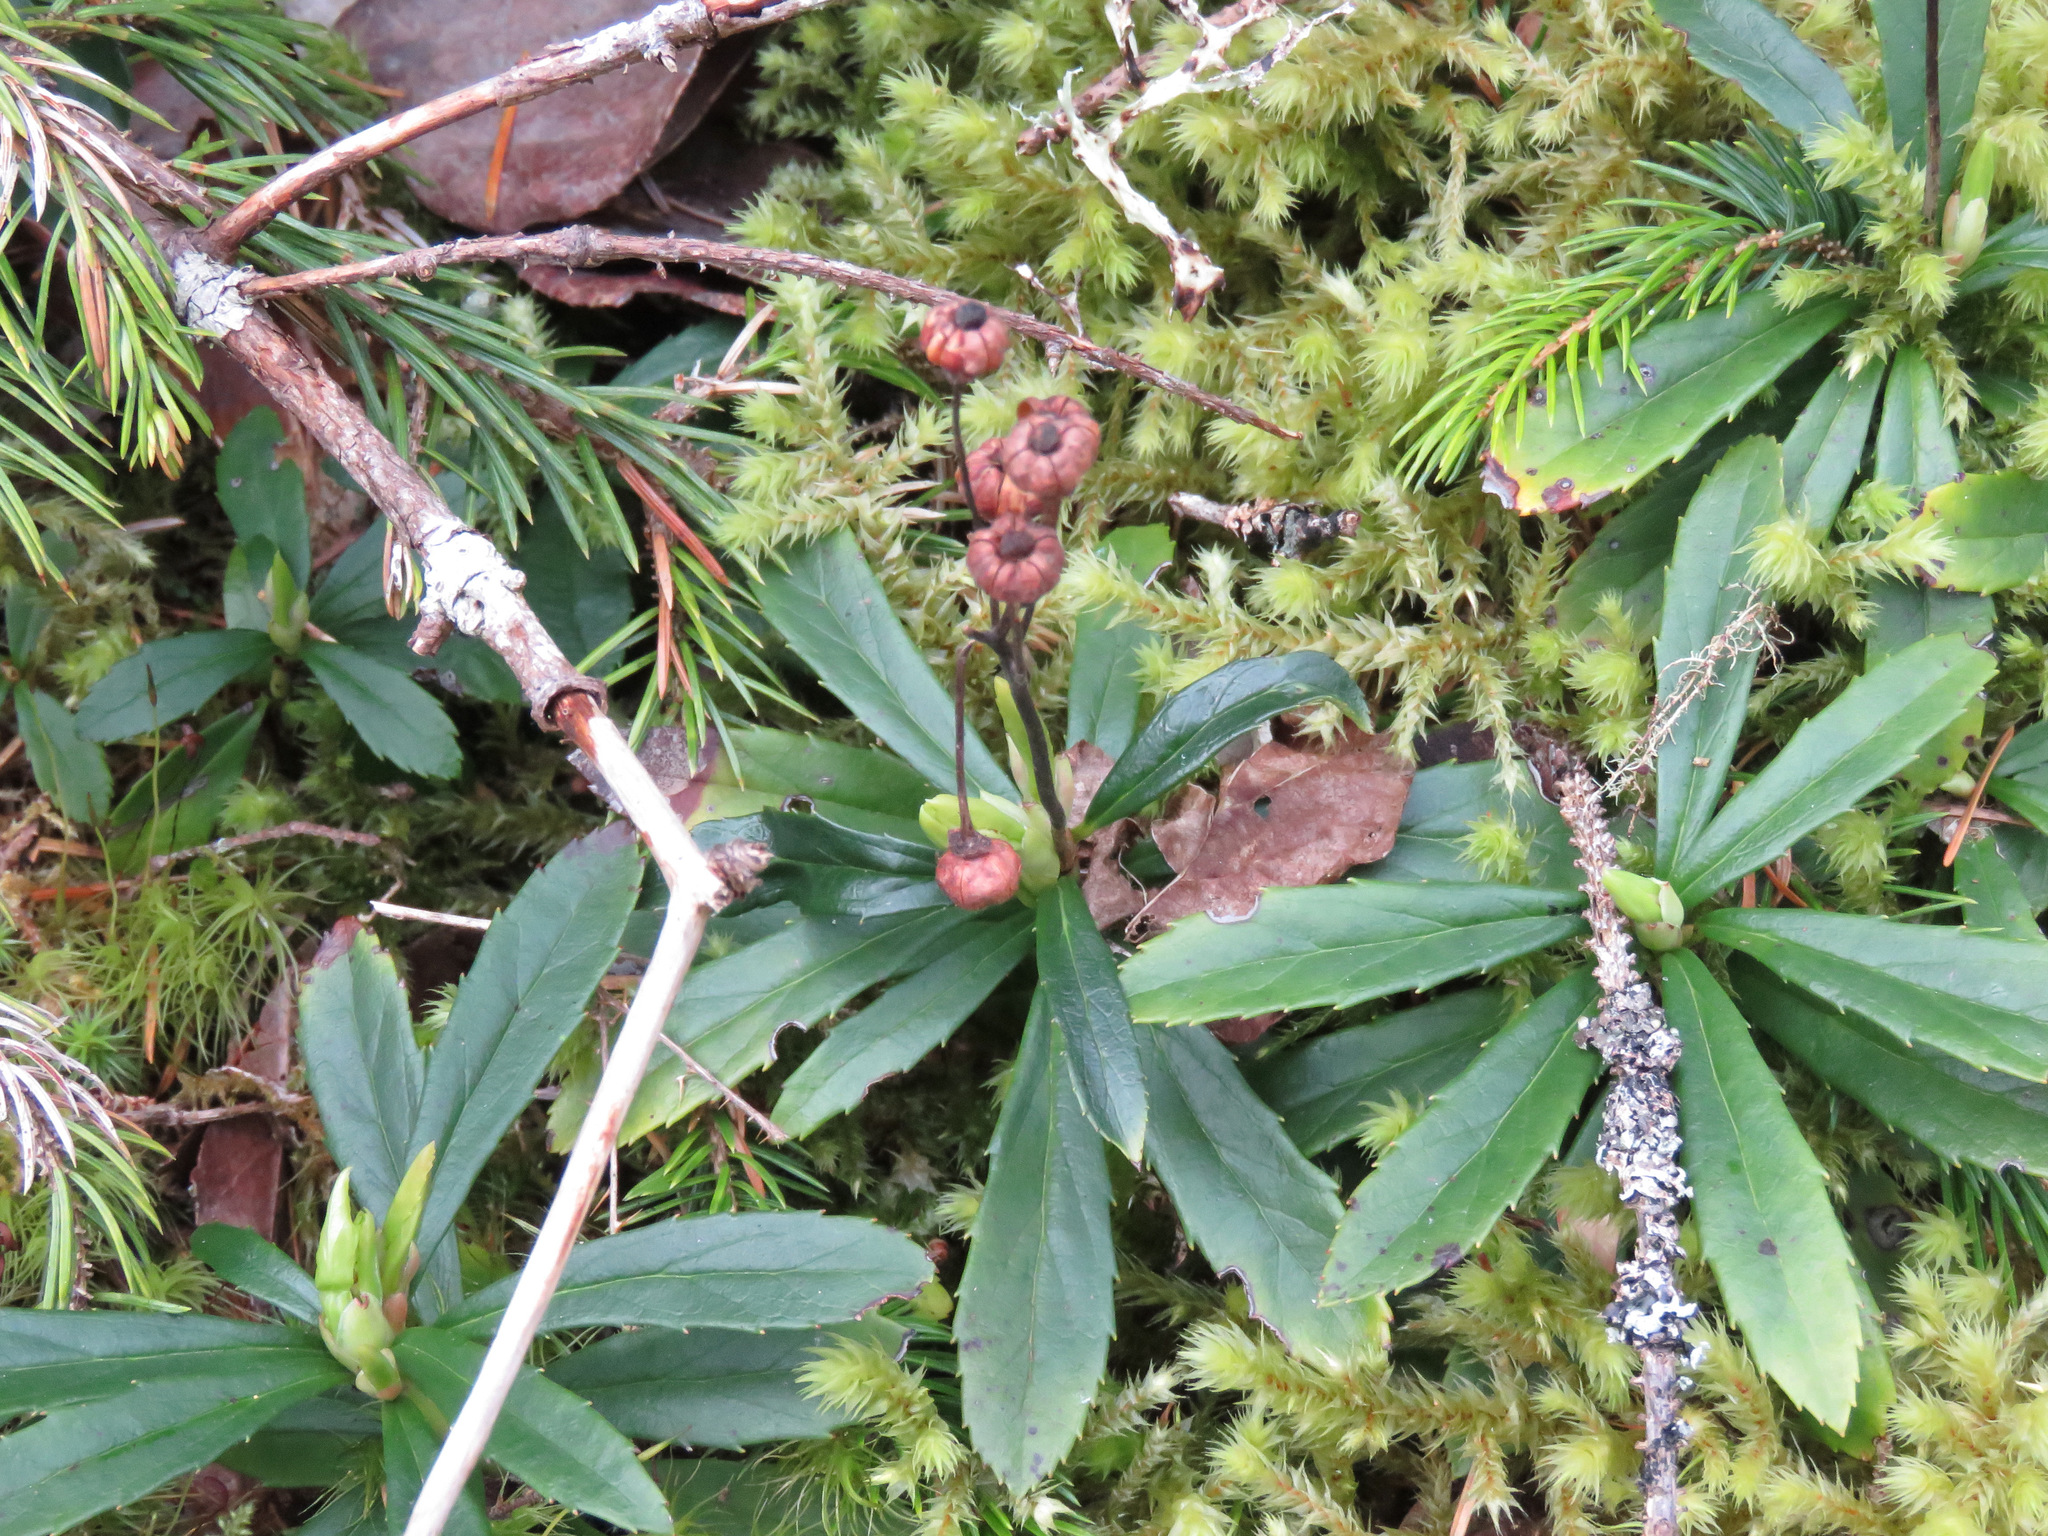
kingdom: Plantae
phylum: Tracheophyta
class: Magnoliopsida
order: Ericales
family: Ericaceae
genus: Chimaphila
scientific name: Chimaphila umbellata
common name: Pipsissewa
